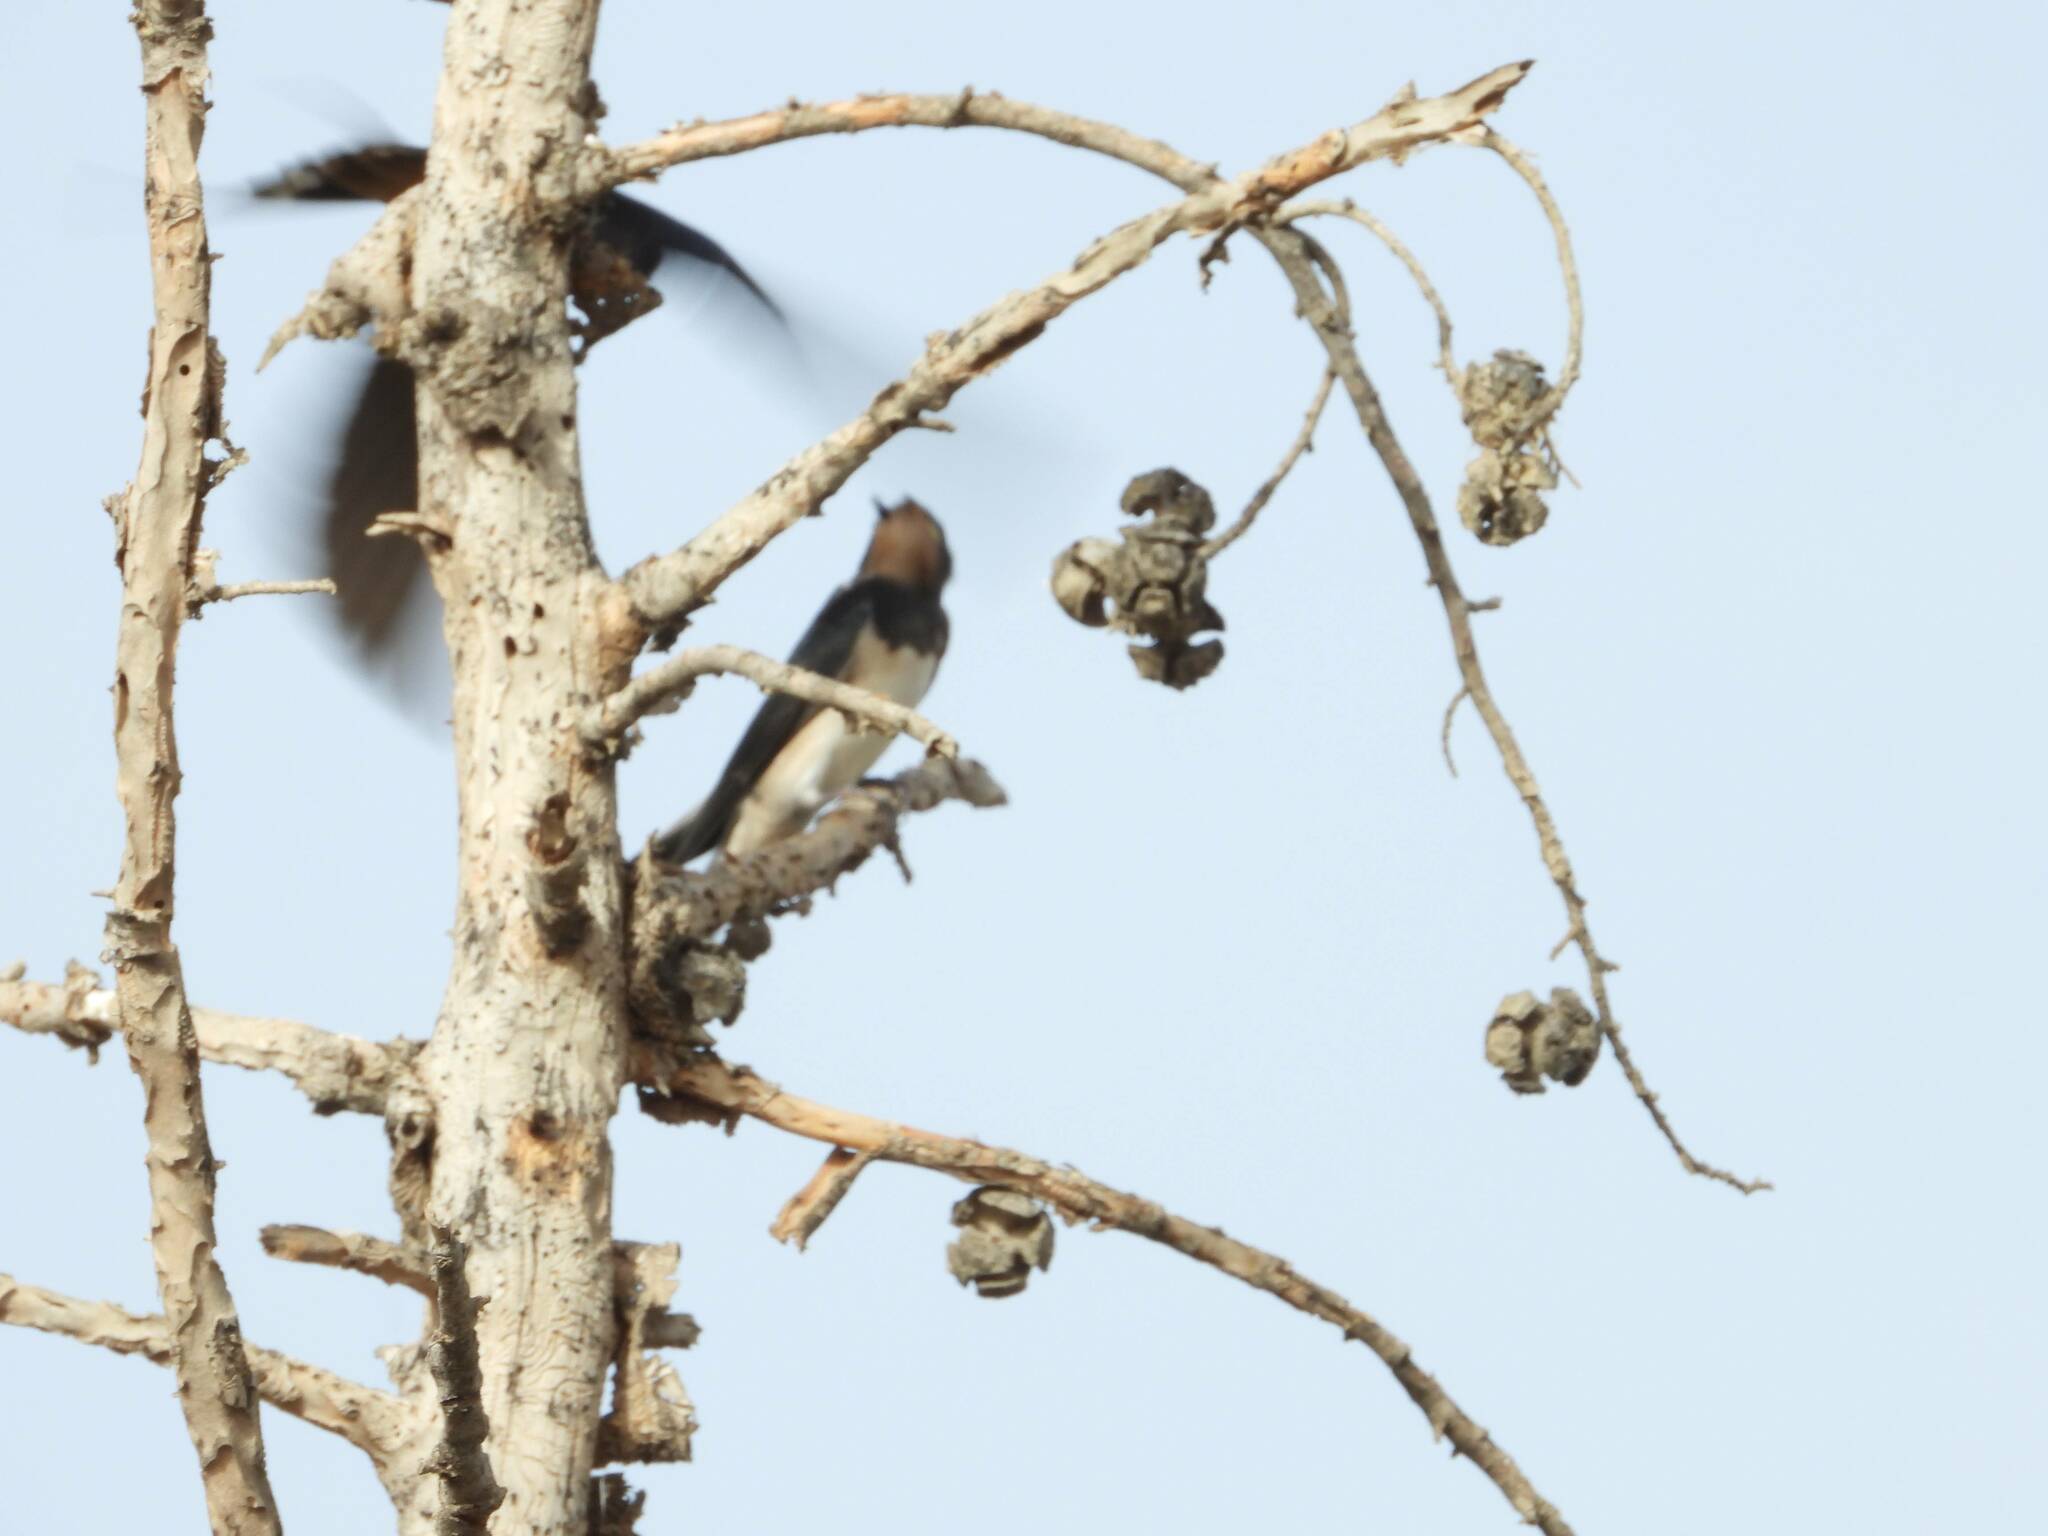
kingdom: Animalia
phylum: Chordata
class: Aves
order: Passeriformes
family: Hirundinidae
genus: Hirundo
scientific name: Hirundo rustica
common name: Barn swallow
